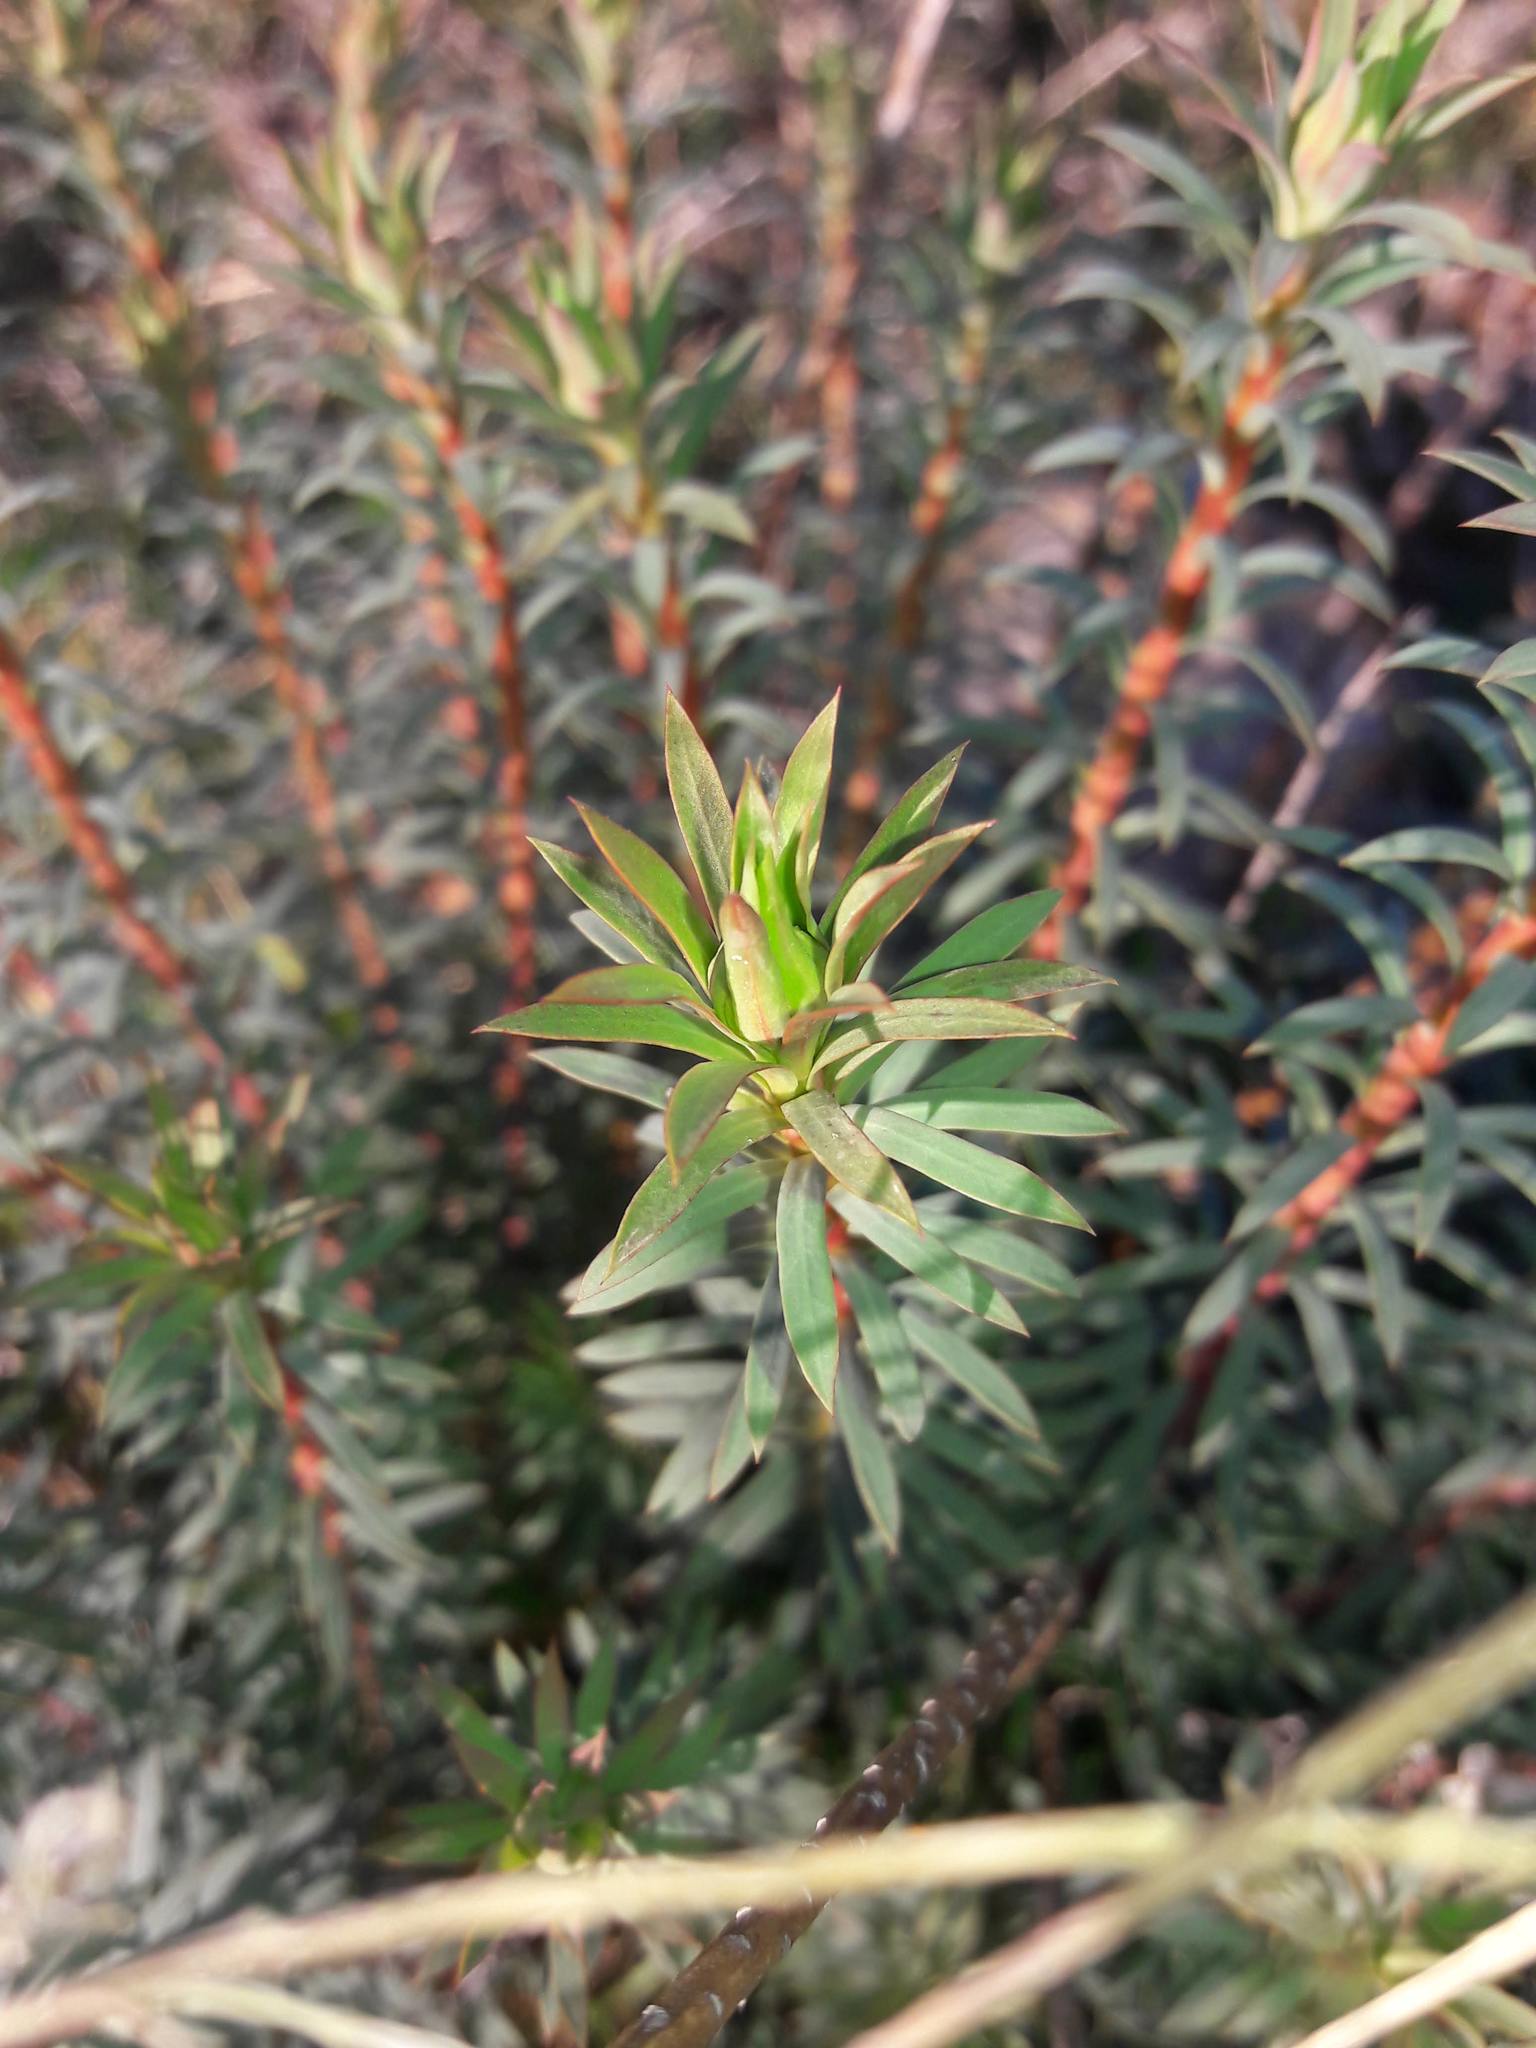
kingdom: Plantae
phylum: Tracheophyta
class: Magnoliopsida
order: Malpighiales
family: Euphorbiaceae
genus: Euphorbia
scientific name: Euphorbia seguieriana
